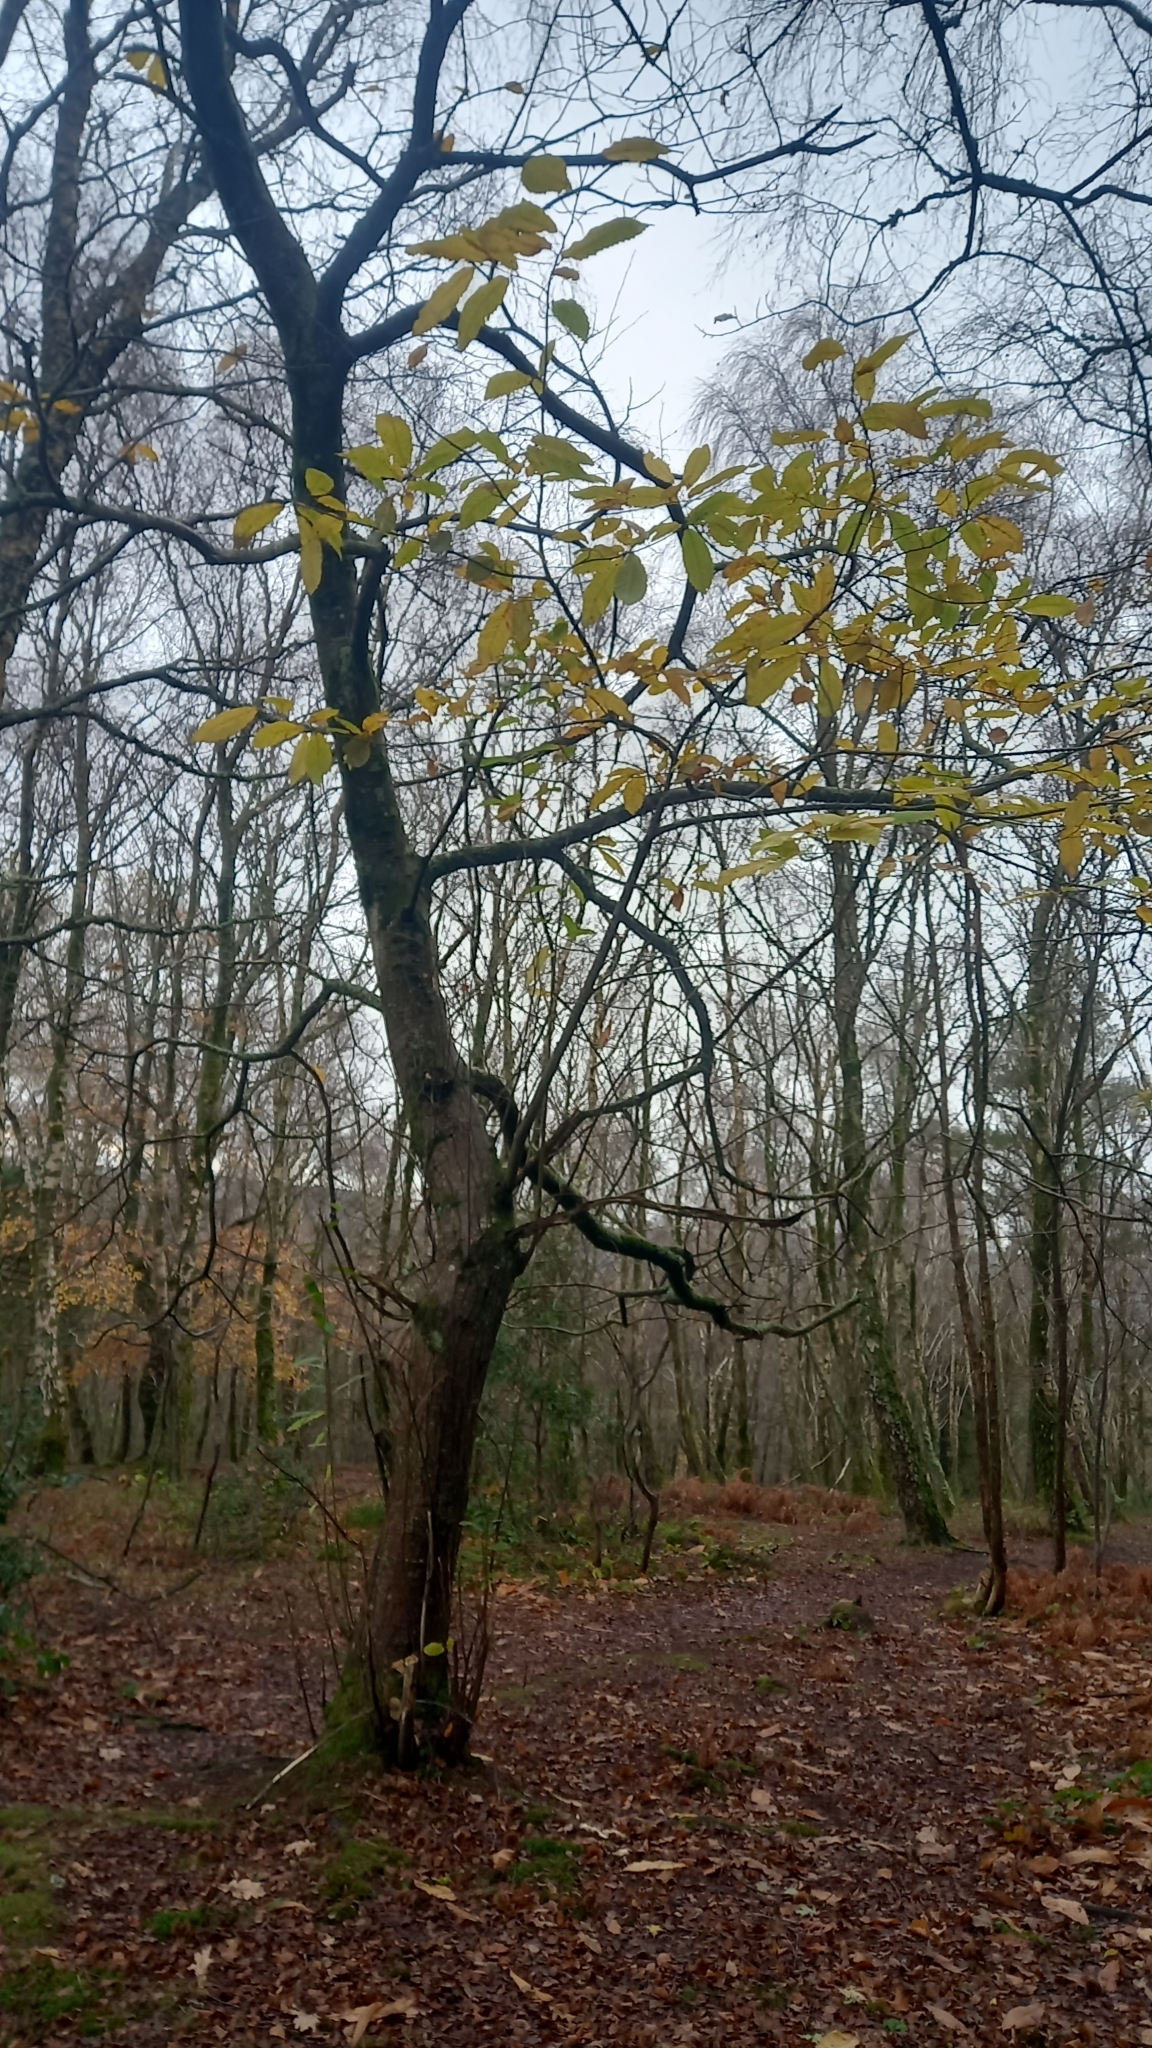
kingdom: Plantae
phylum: Tracheophyta
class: Magnoliopsida
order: Fagales
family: Fagaceae
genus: Castanea
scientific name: Castanea sativa
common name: Sweet chestnut
